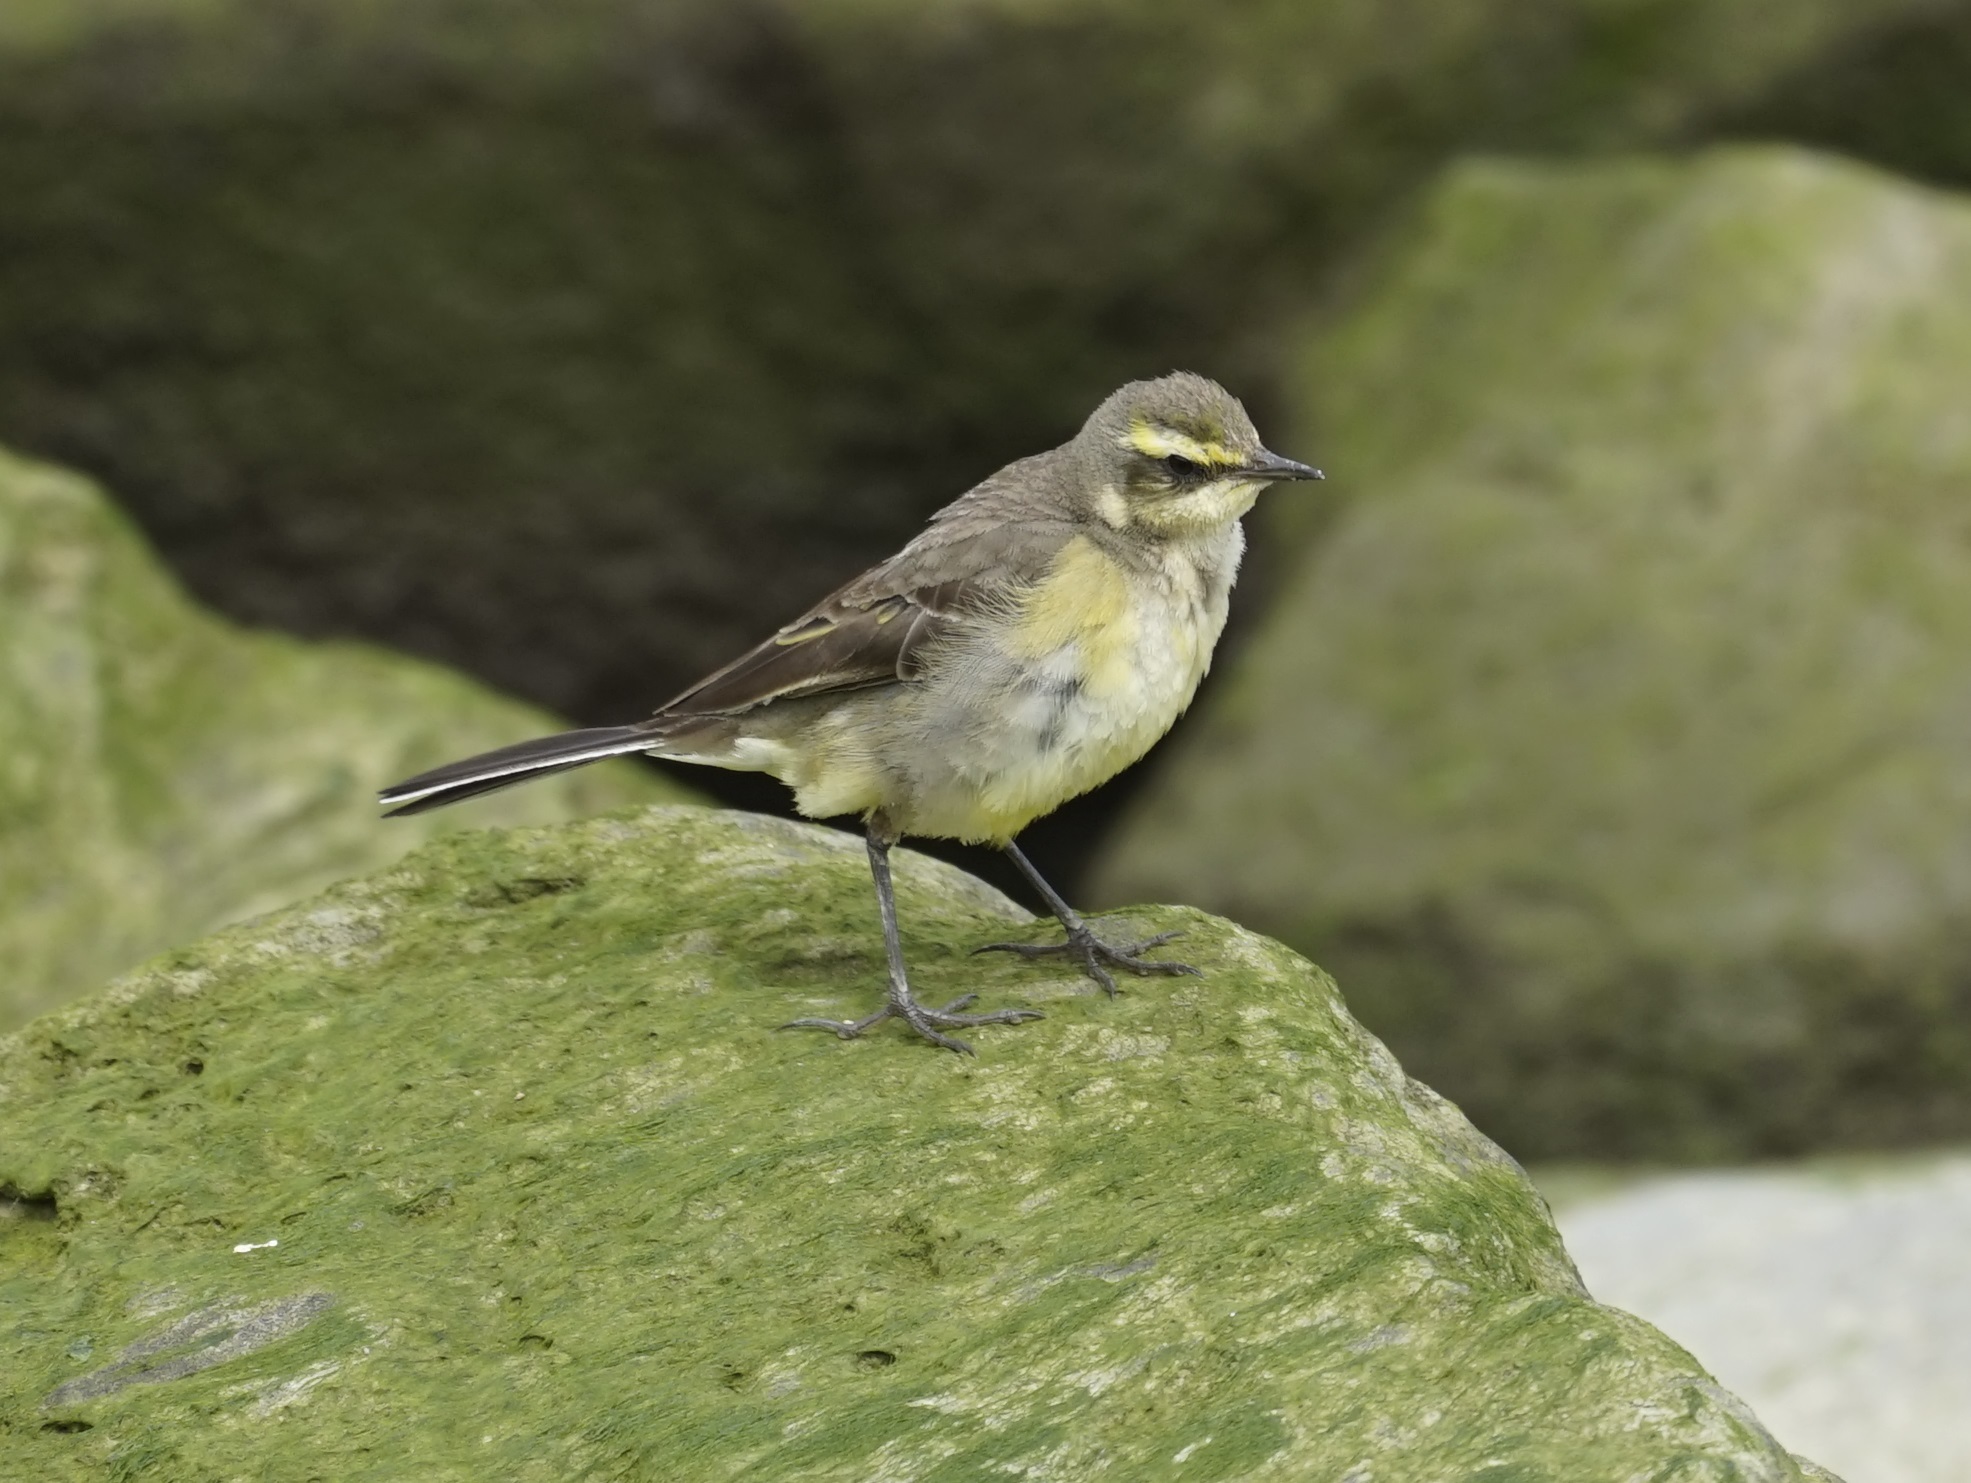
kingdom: Animalia
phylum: Chordata
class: Aves
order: Passeriformes
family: Motacillidae
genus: Motacilla
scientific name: Motacilla tschutschensis
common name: Eastern yellow wagtail
